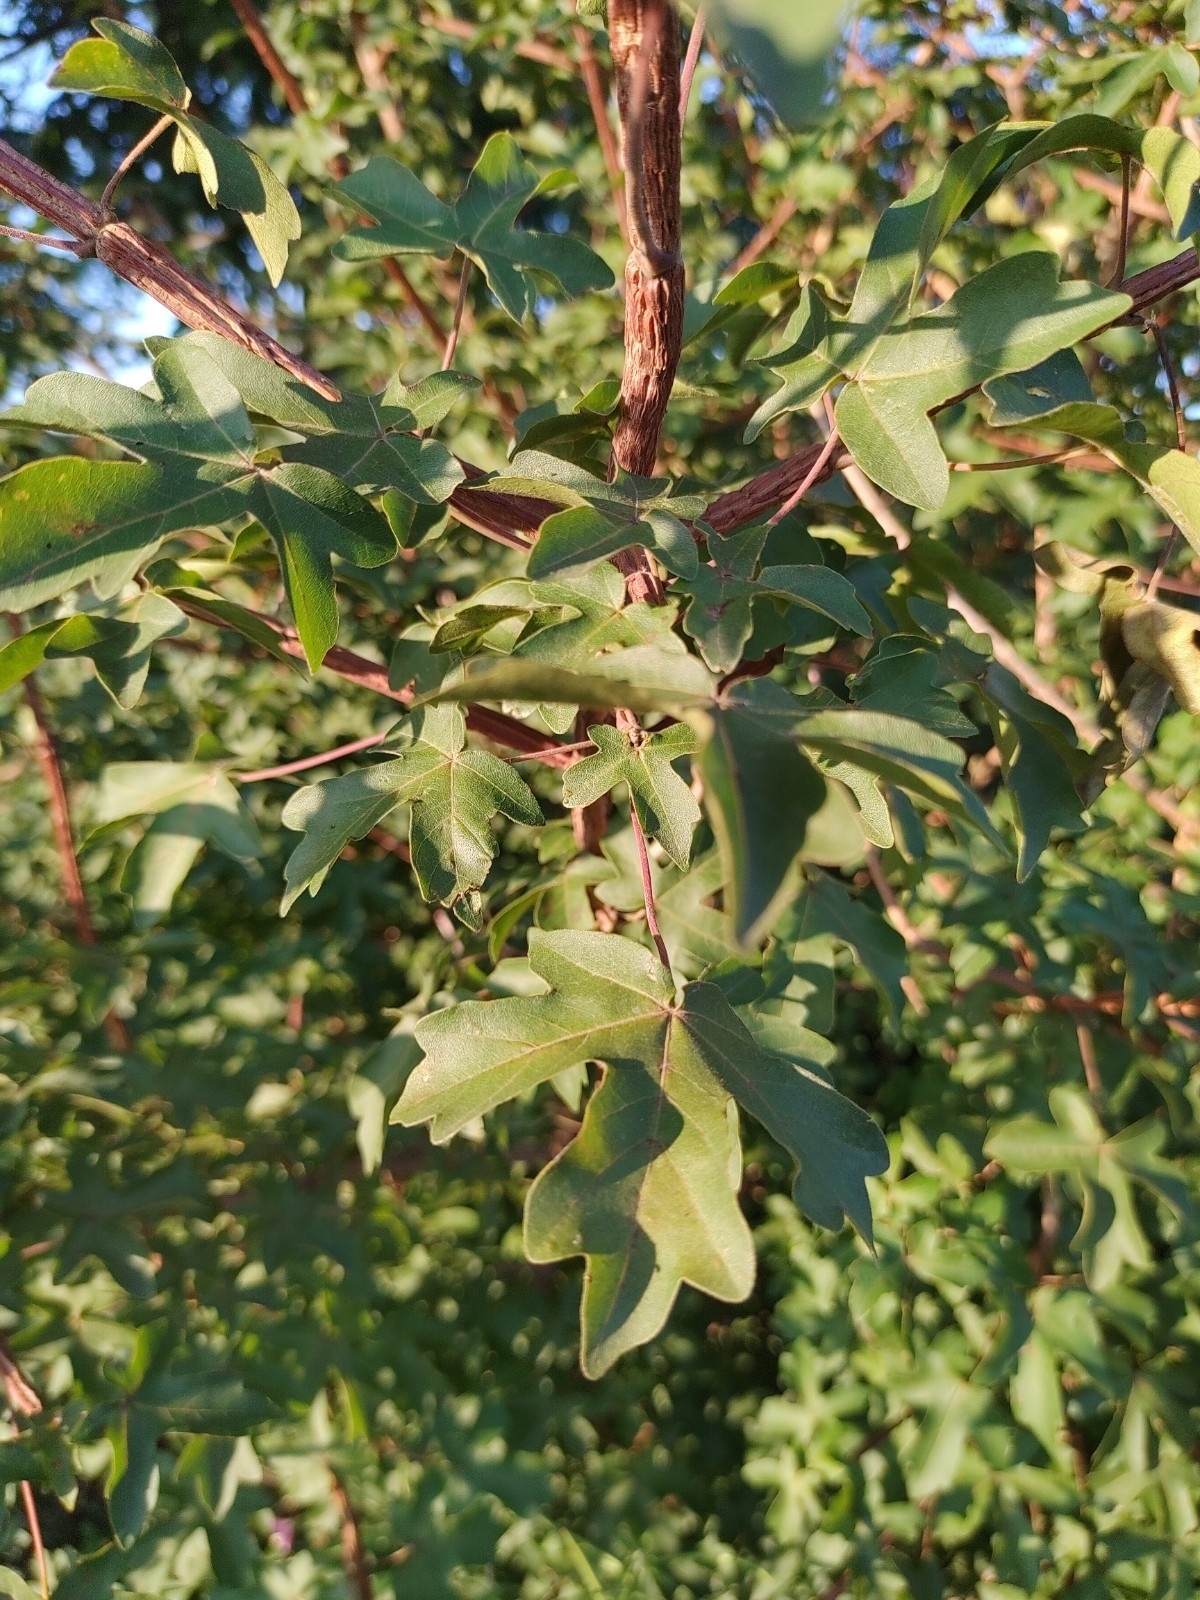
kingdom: Plantae
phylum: Tracheophyta
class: Magnoliopsida
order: Sapindales
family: Sapindaceae
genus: Acer
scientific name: Acer campestre
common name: Field maple
